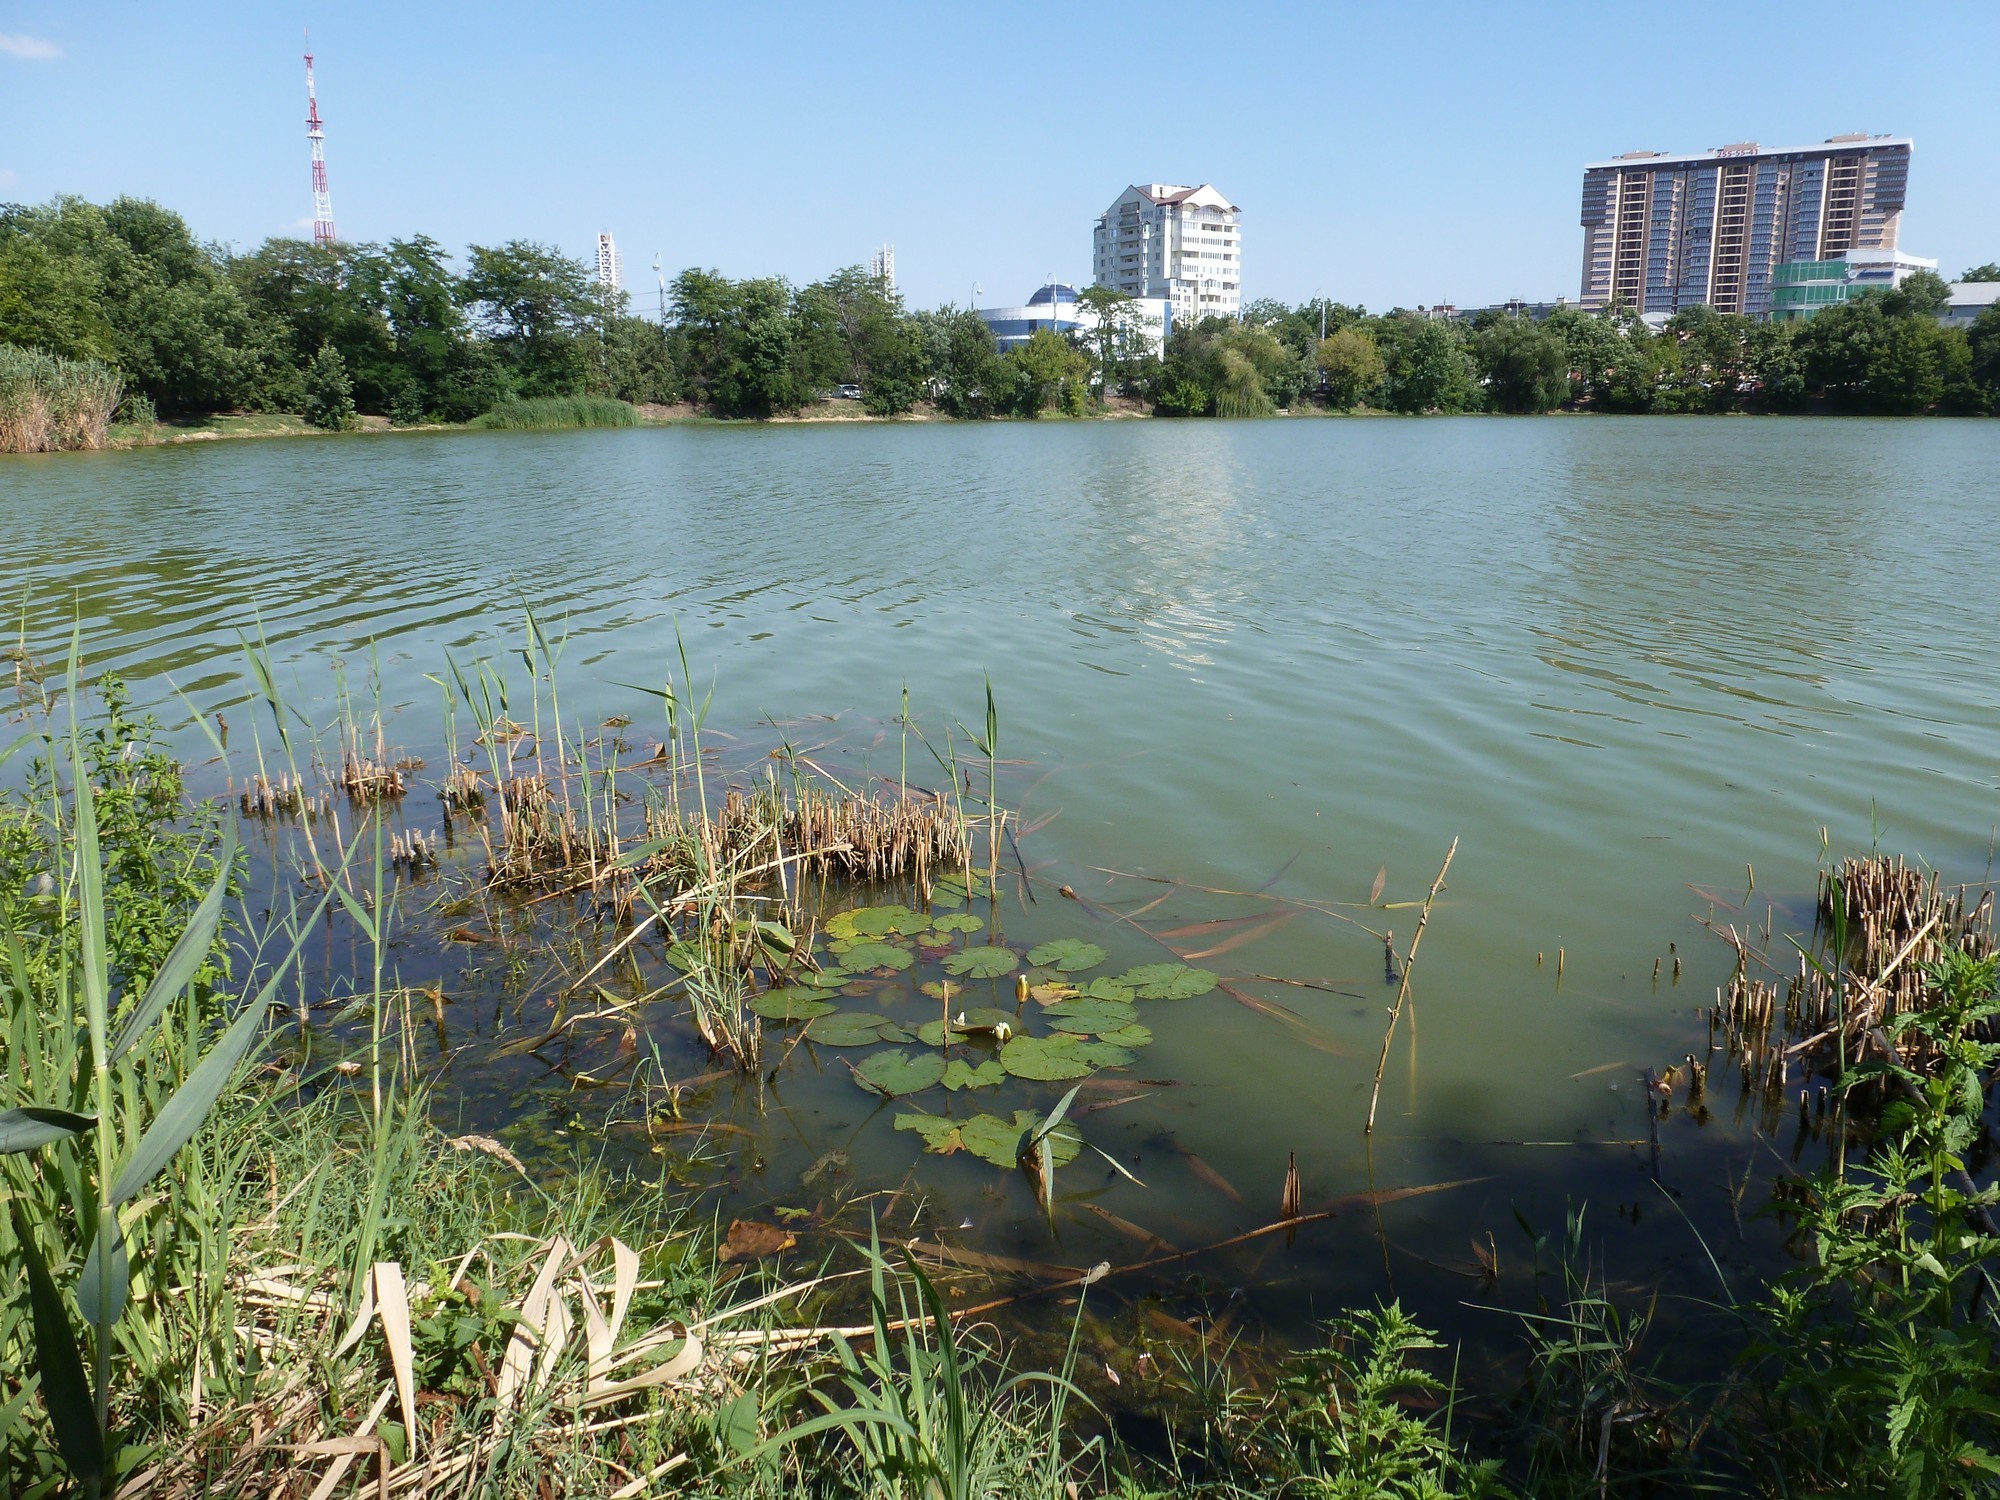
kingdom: Plantae
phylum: Tracheophyta
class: Magnoliopsida
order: Nymphaeales
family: Nymphaeaceae
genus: Nymphaea
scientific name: Nymphaea alba
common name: White water-lily
